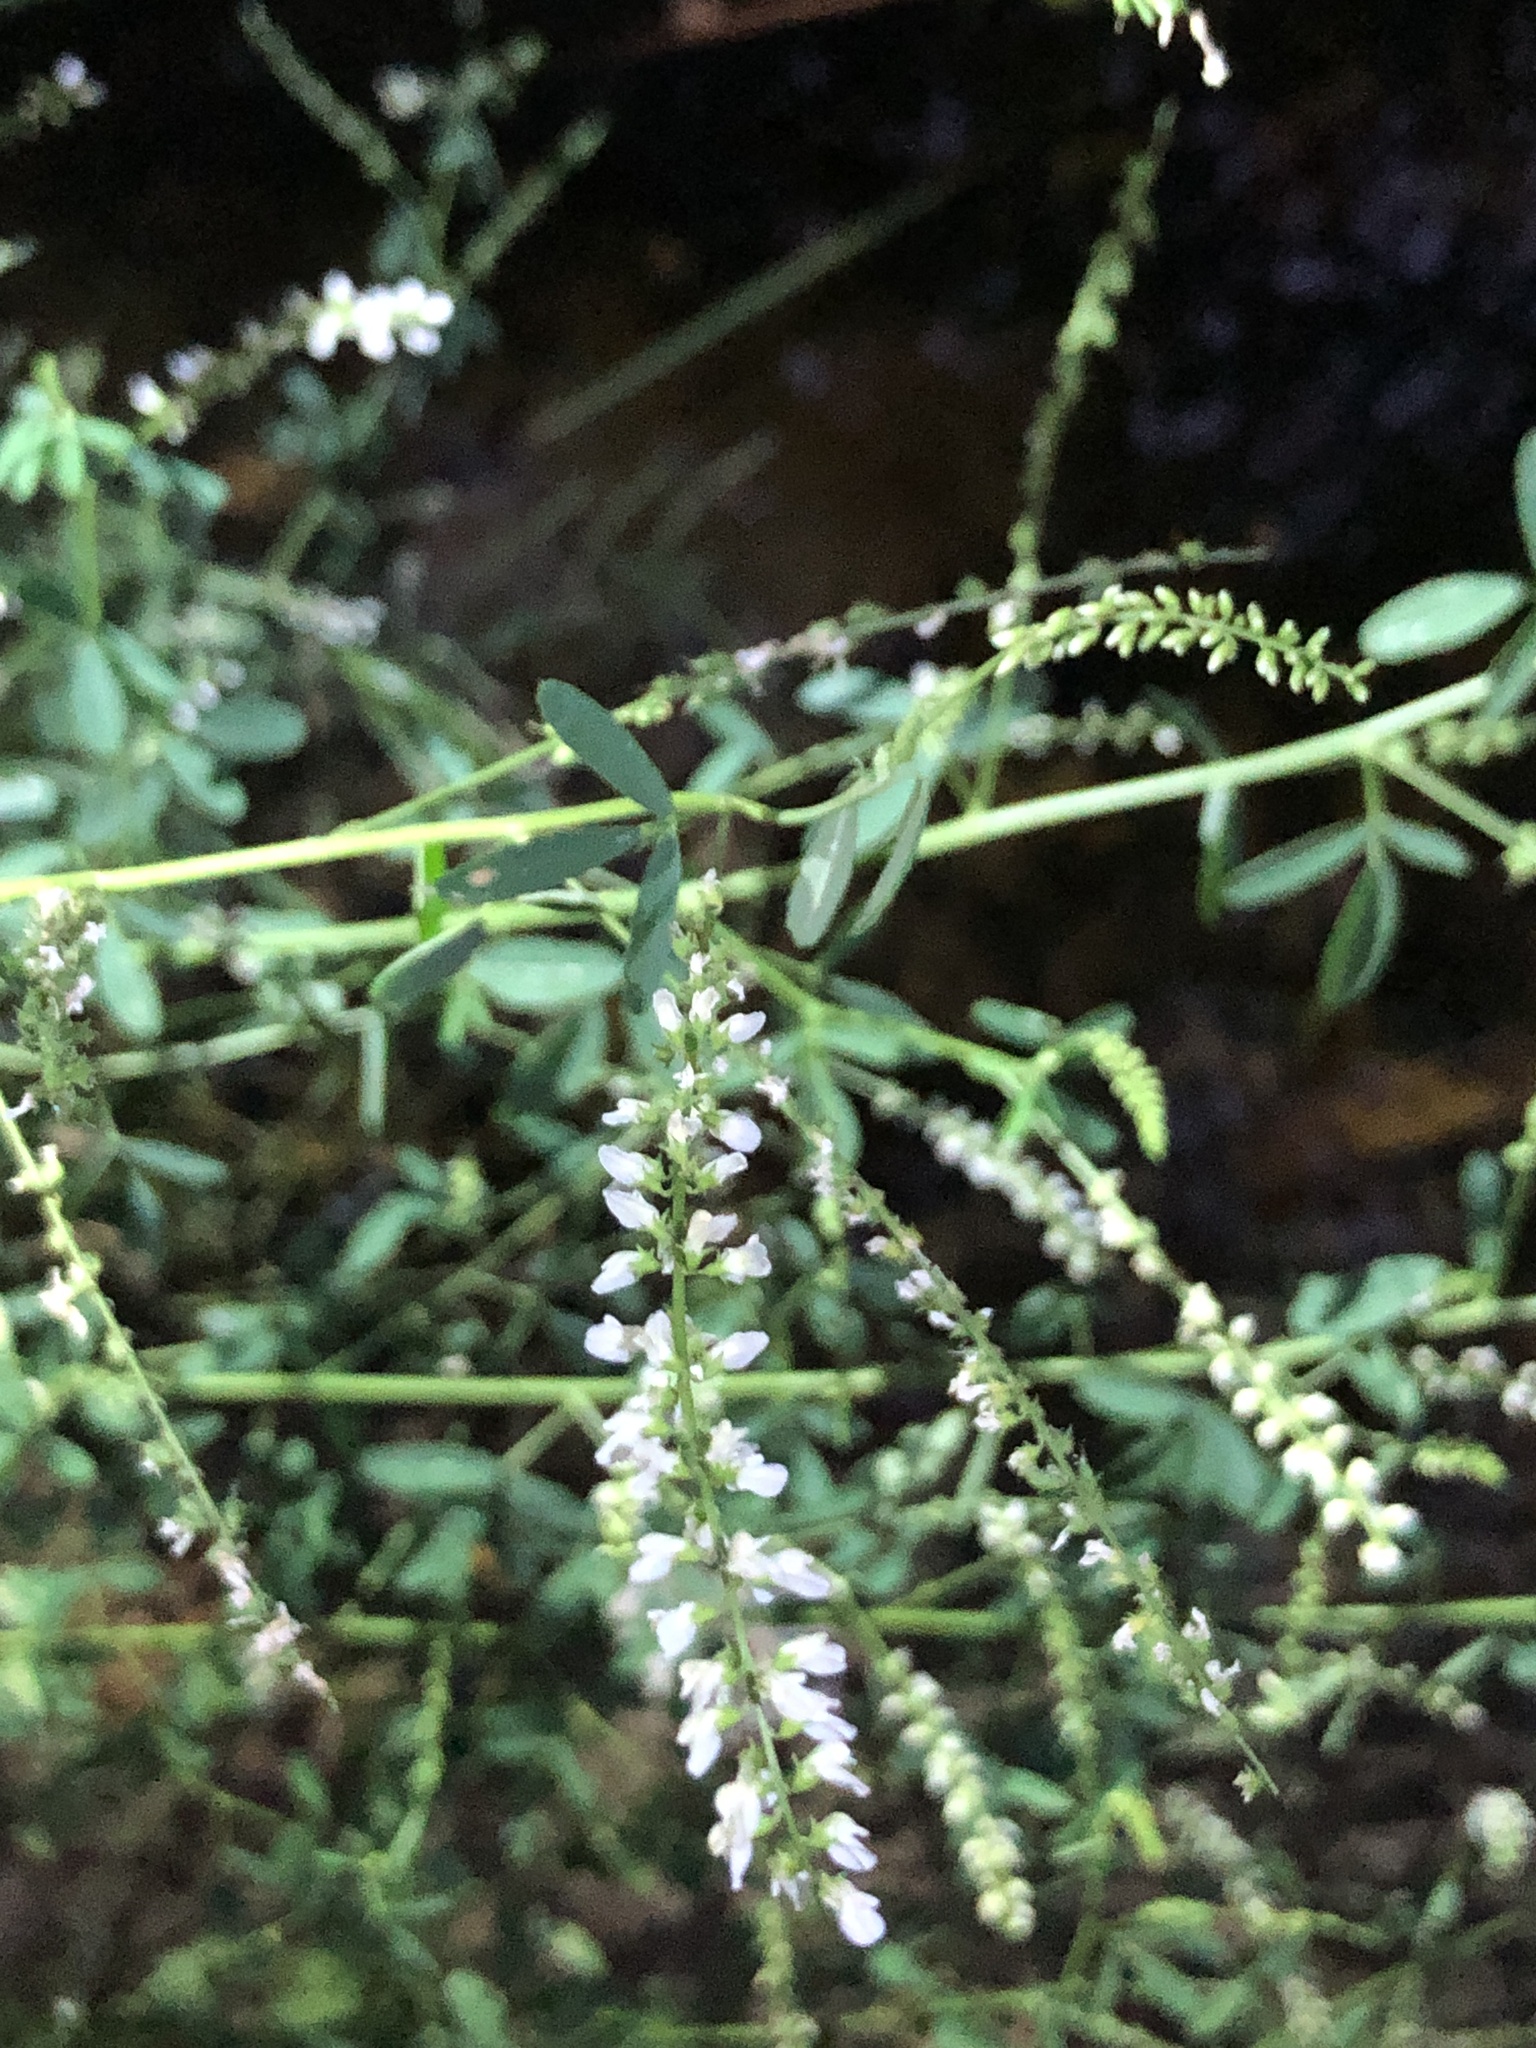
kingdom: Plantae
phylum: Tracheophyta
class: Magnoliopsida
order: Fabales
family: Fabaceae
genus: Melilotus
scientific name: Melilotus albus
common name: White melilot
